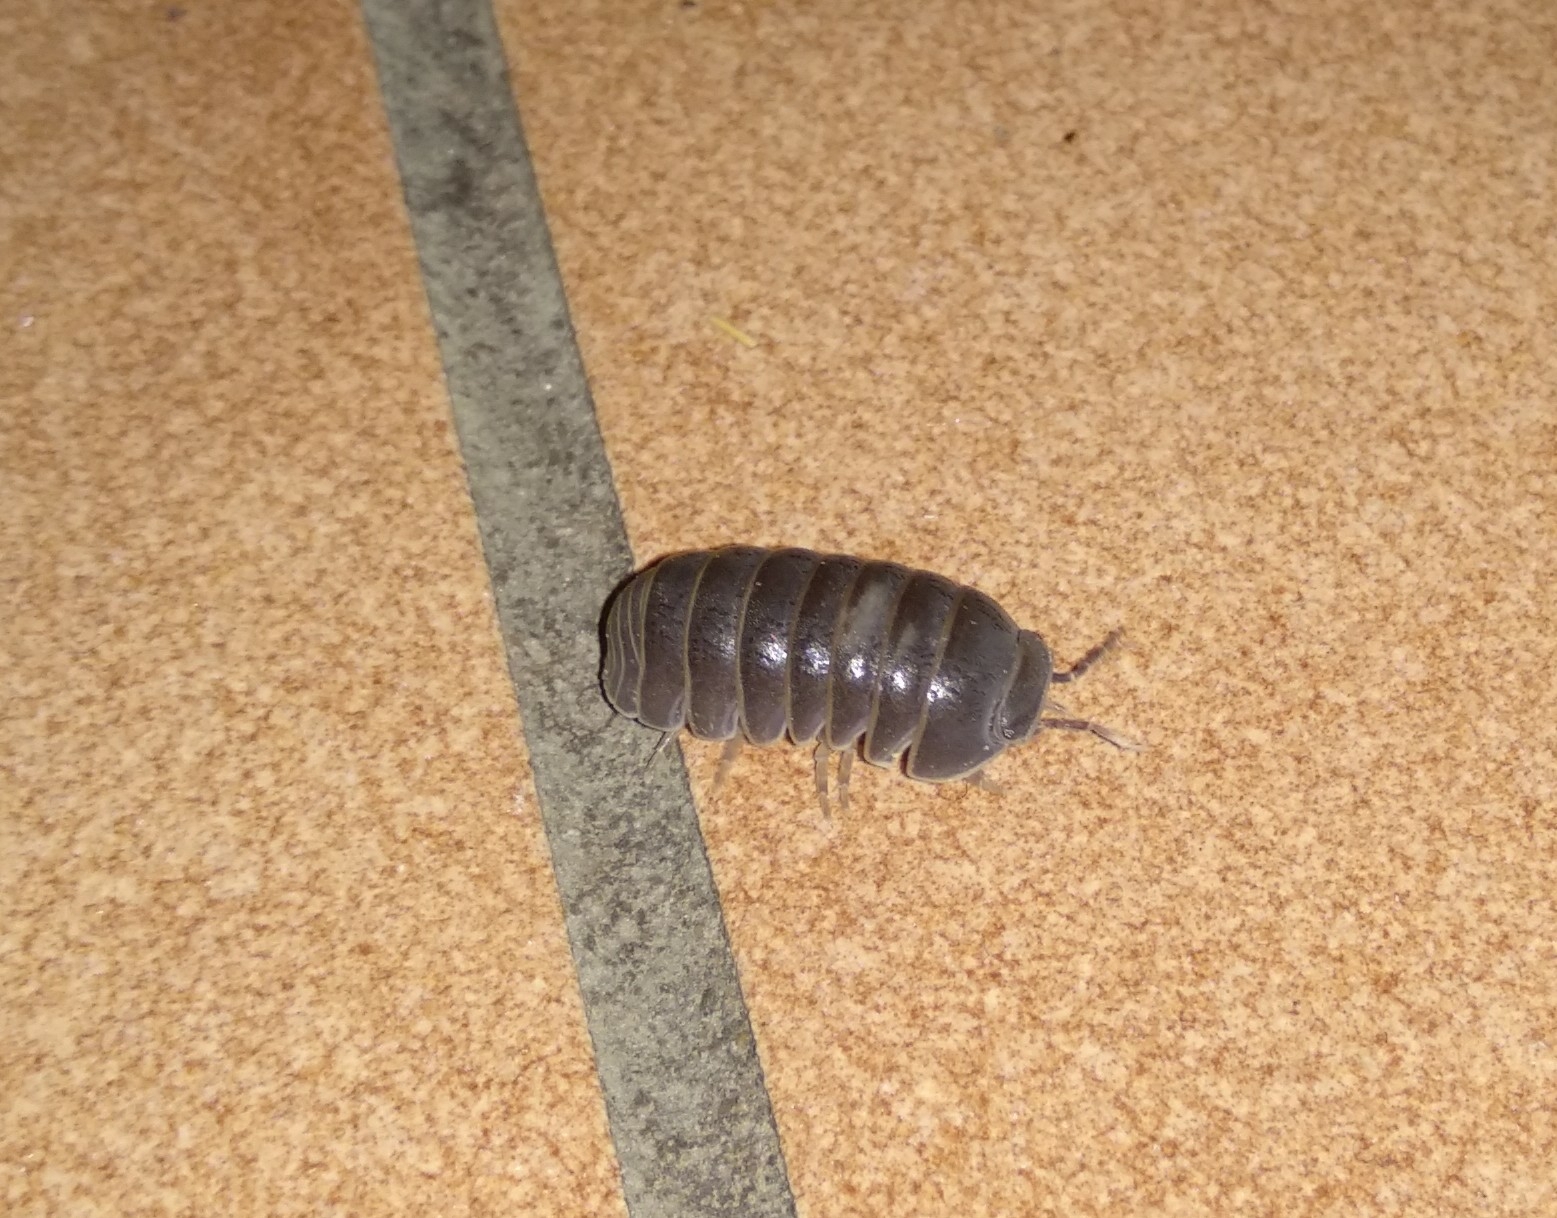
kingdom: Animalia
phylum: Arthropoda
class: Malacostraca
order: Isopoda
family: Armadillidae
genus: Armadillo
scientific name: Armadillo officinalis
